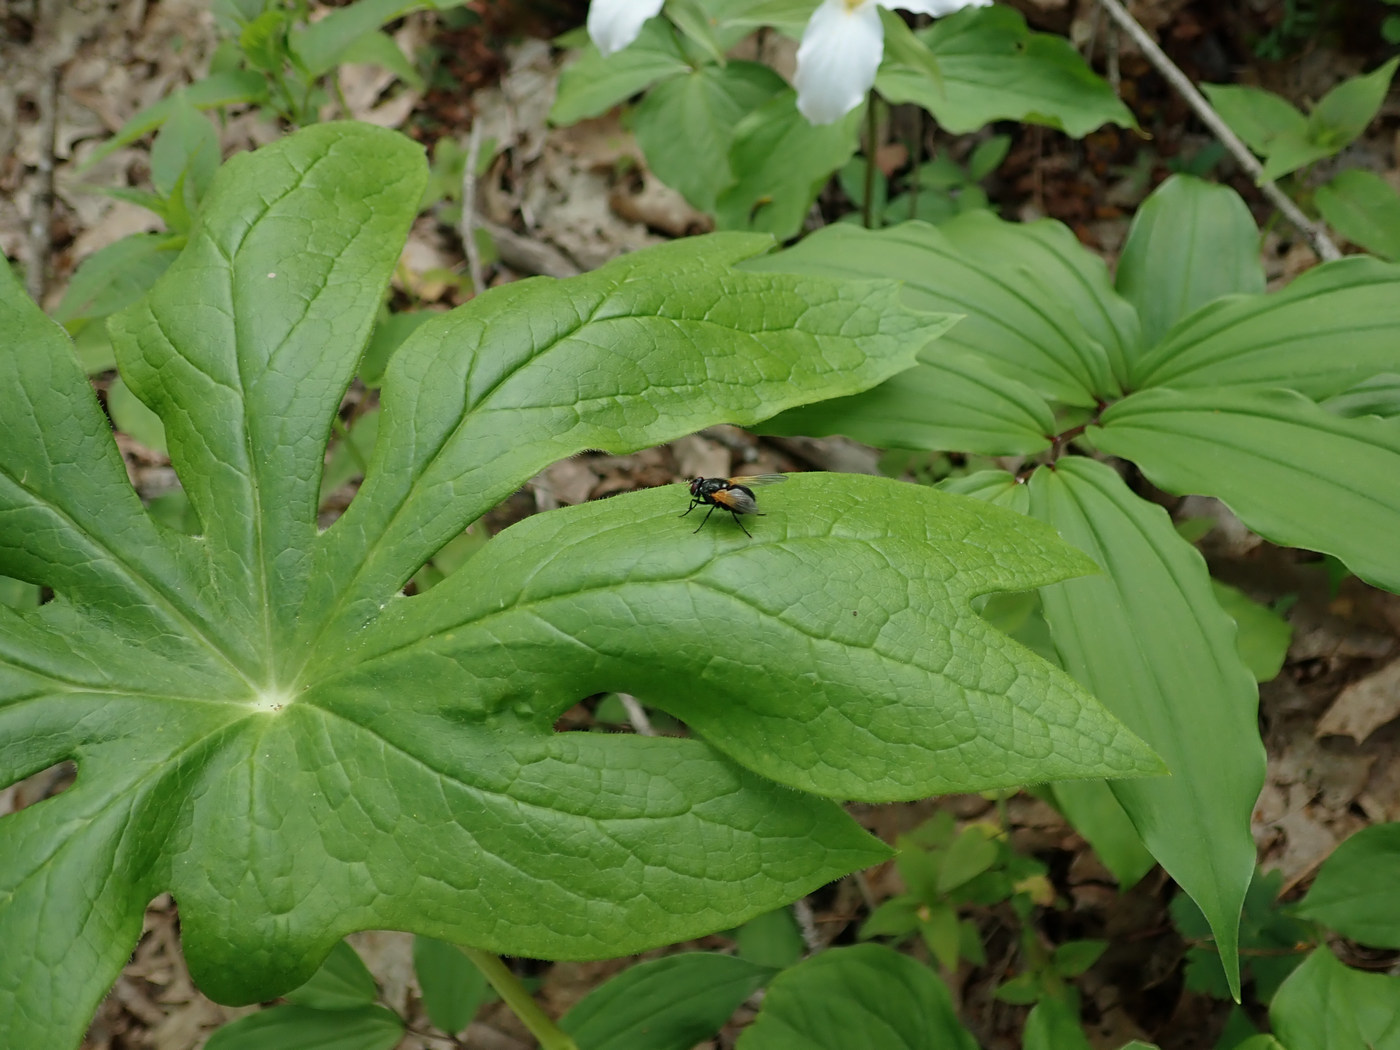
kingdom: Animalia
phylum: Arthropoda
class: Insecta
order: Diptera
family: Muscidae
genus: Mesembrina
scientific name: Mesembrina latreillii
